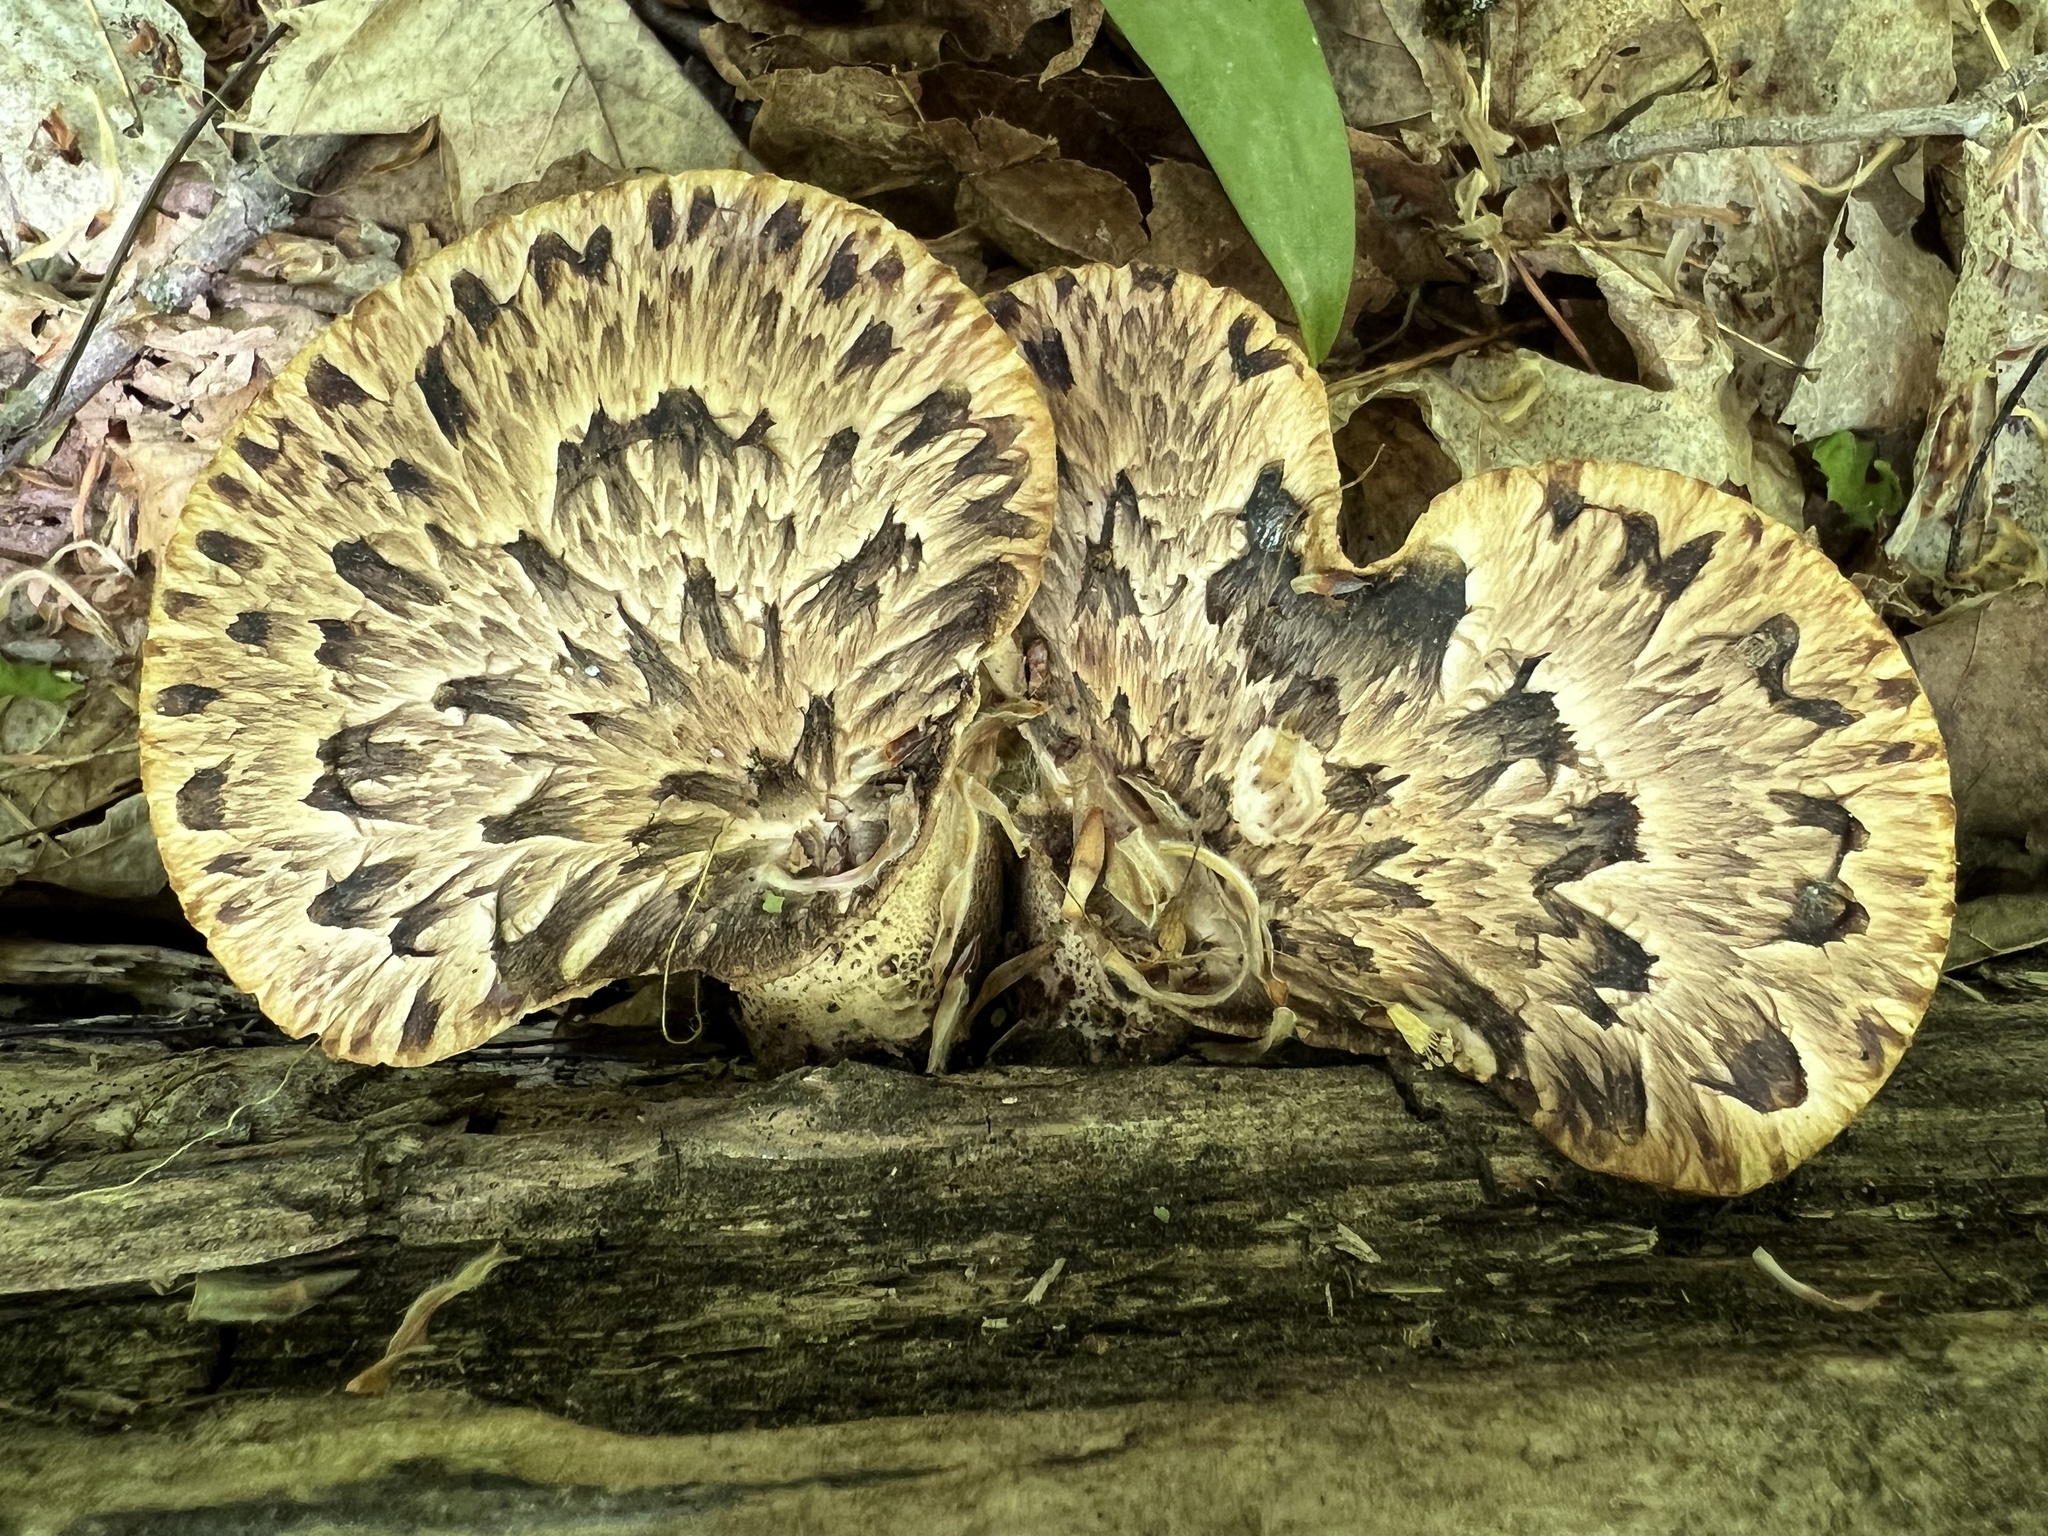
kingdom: Fungi
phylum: Basidiomycota
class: Agaricomycetes
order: Polyporales
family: Polyporaceae
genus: Cerioporus
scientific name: Cerioporus squamosus
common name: Dryad's saddle
